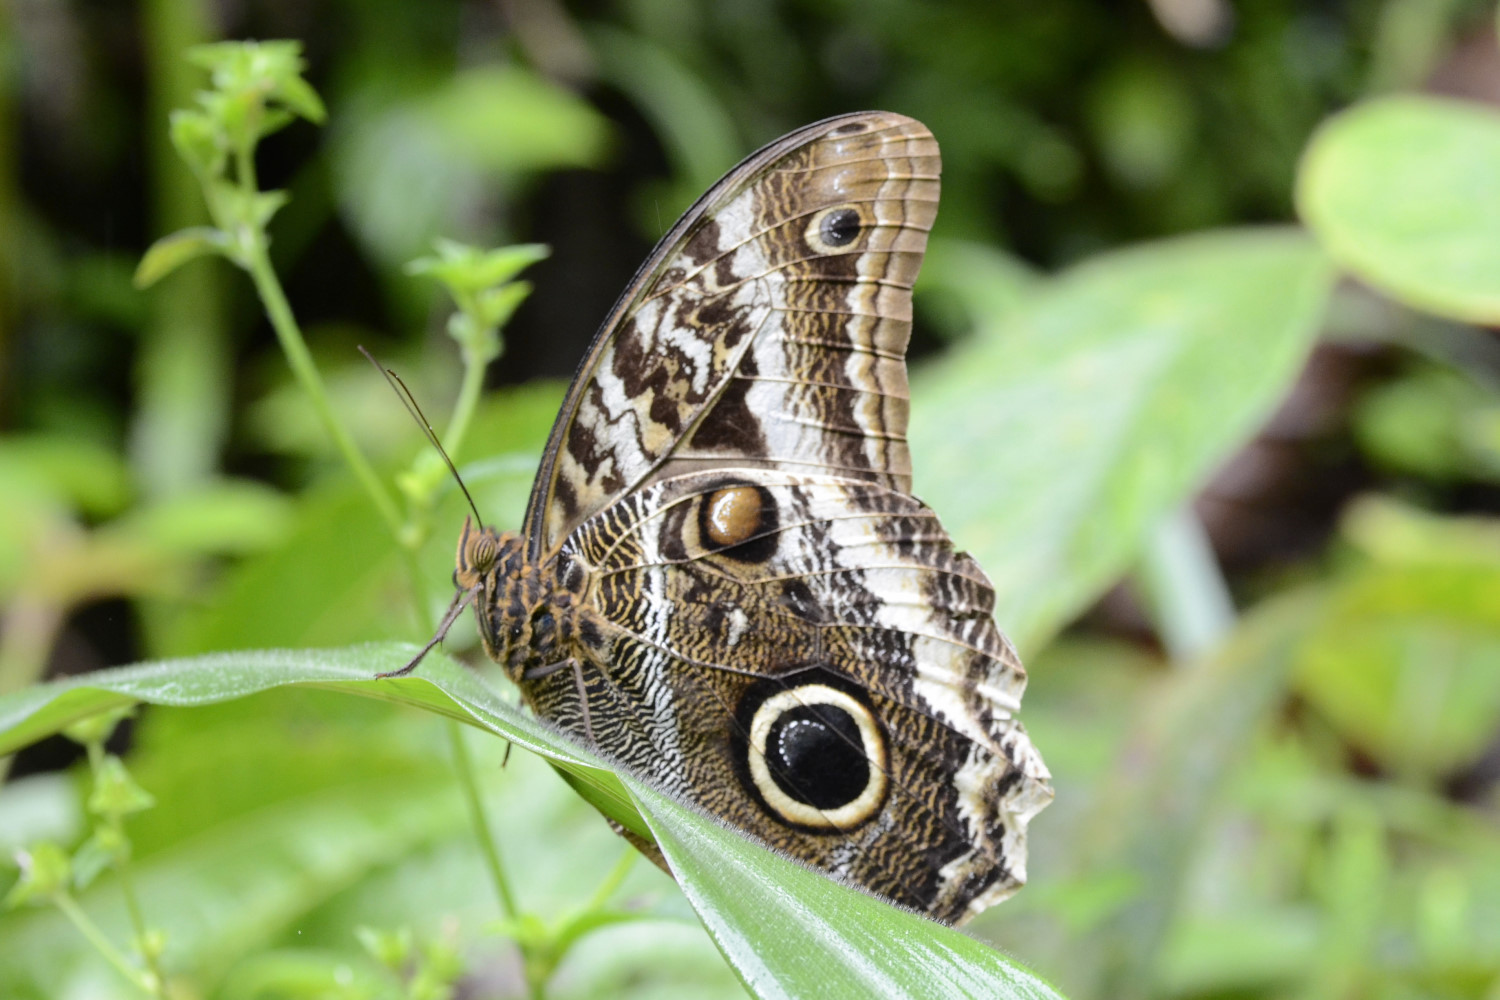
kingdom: Animalia
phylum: Arthropoda
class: Insecta
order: Lepidoptera
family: Nymphalidae
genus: Caligo
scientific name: Caligo atreus
